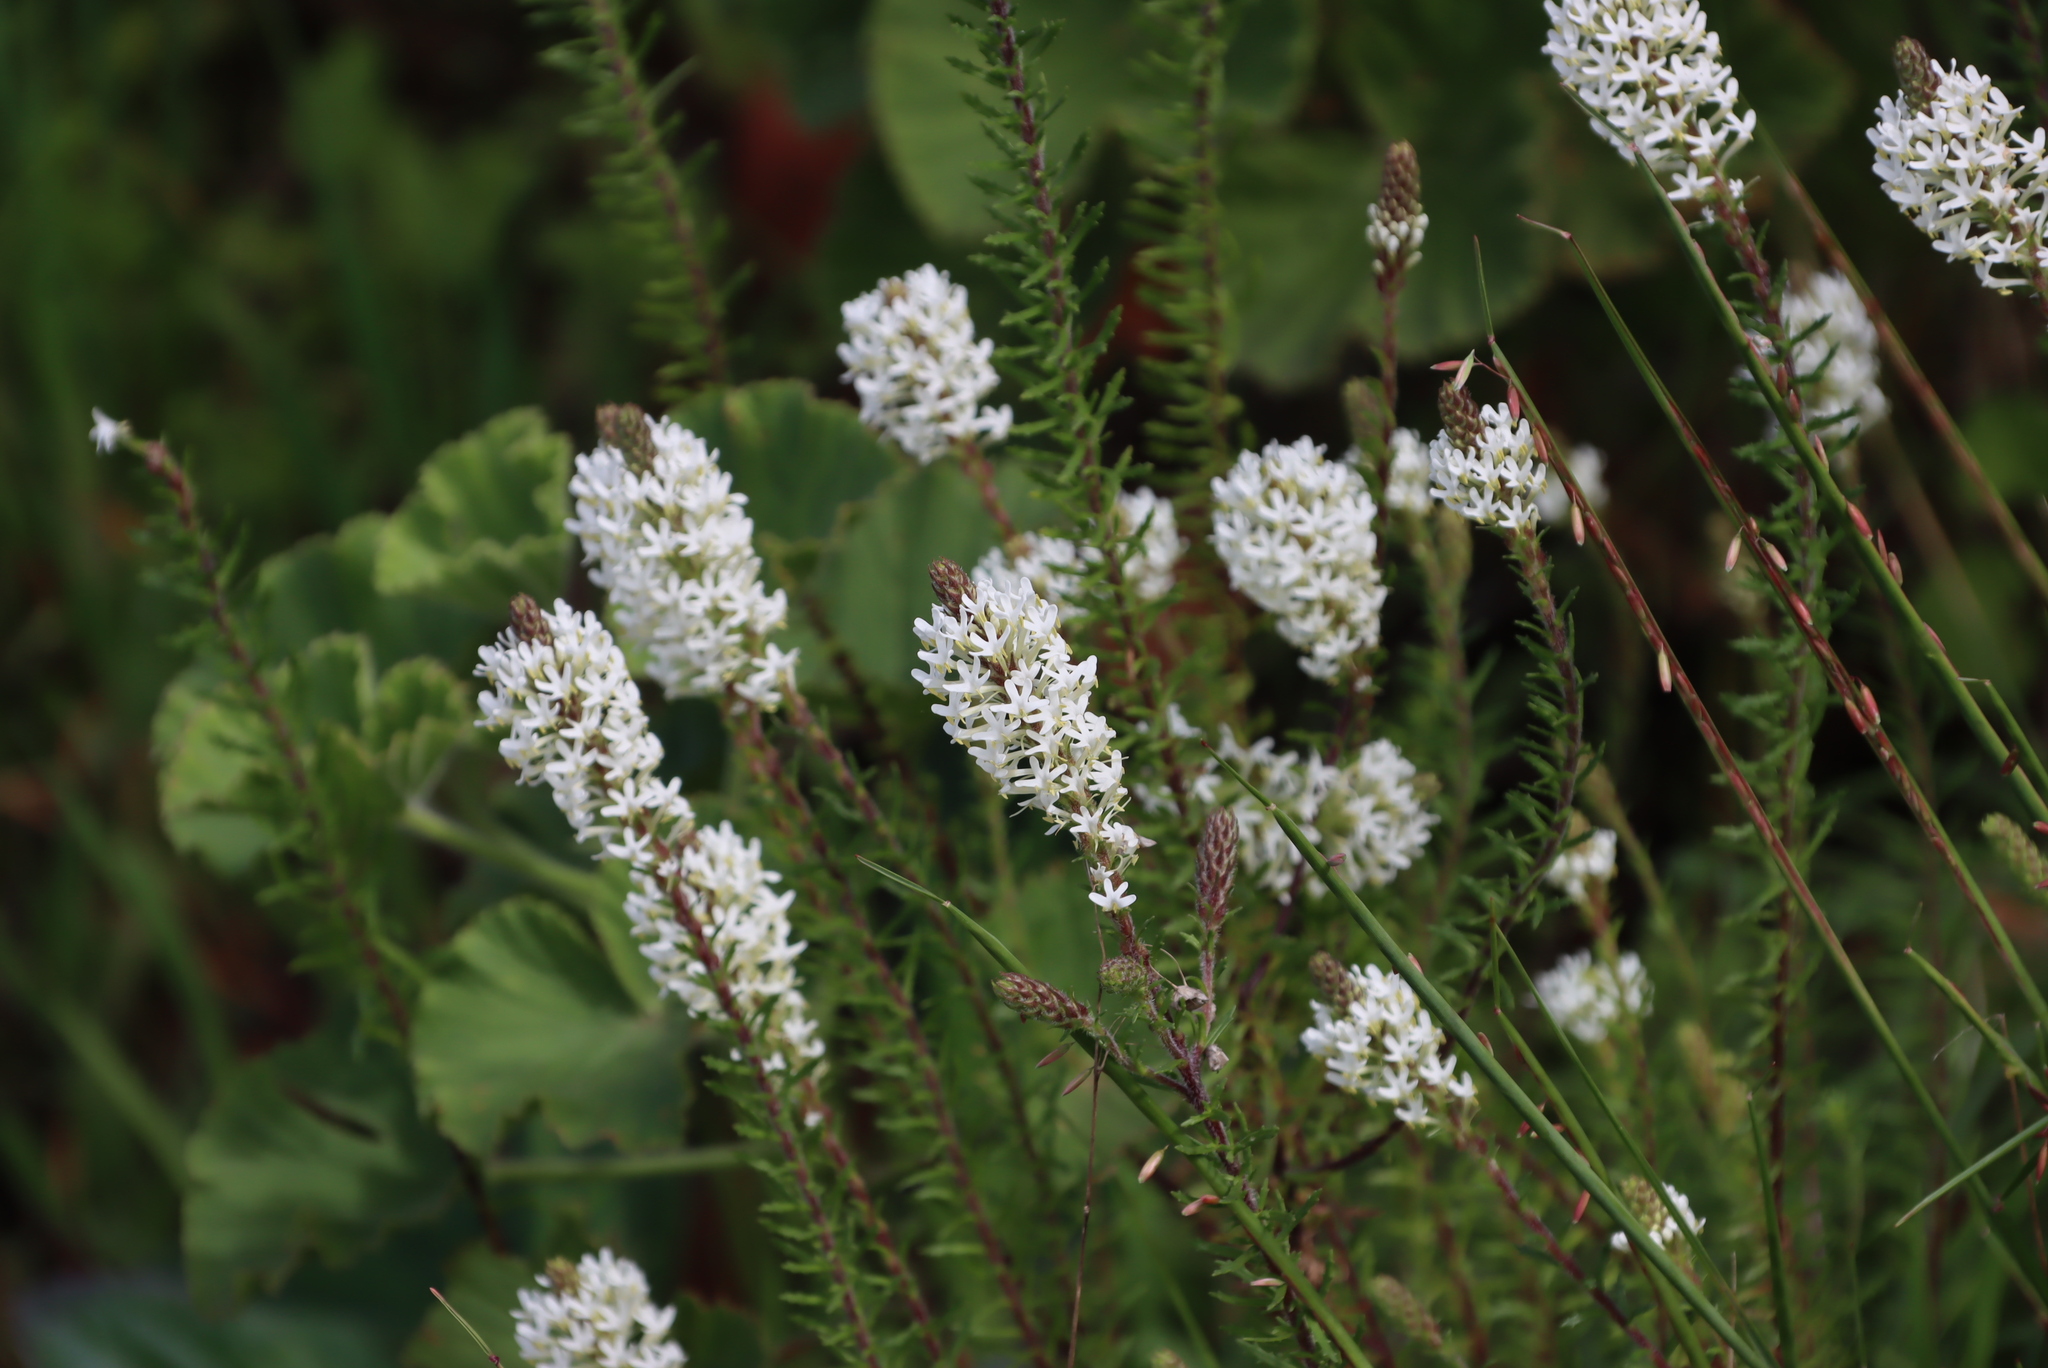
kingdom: Plantae
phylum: Tracheophyta
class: Magnoliopsida
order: Lamiales
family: Scrophulariaceae
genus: Dischisma
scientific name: Dischisma ciliatum
